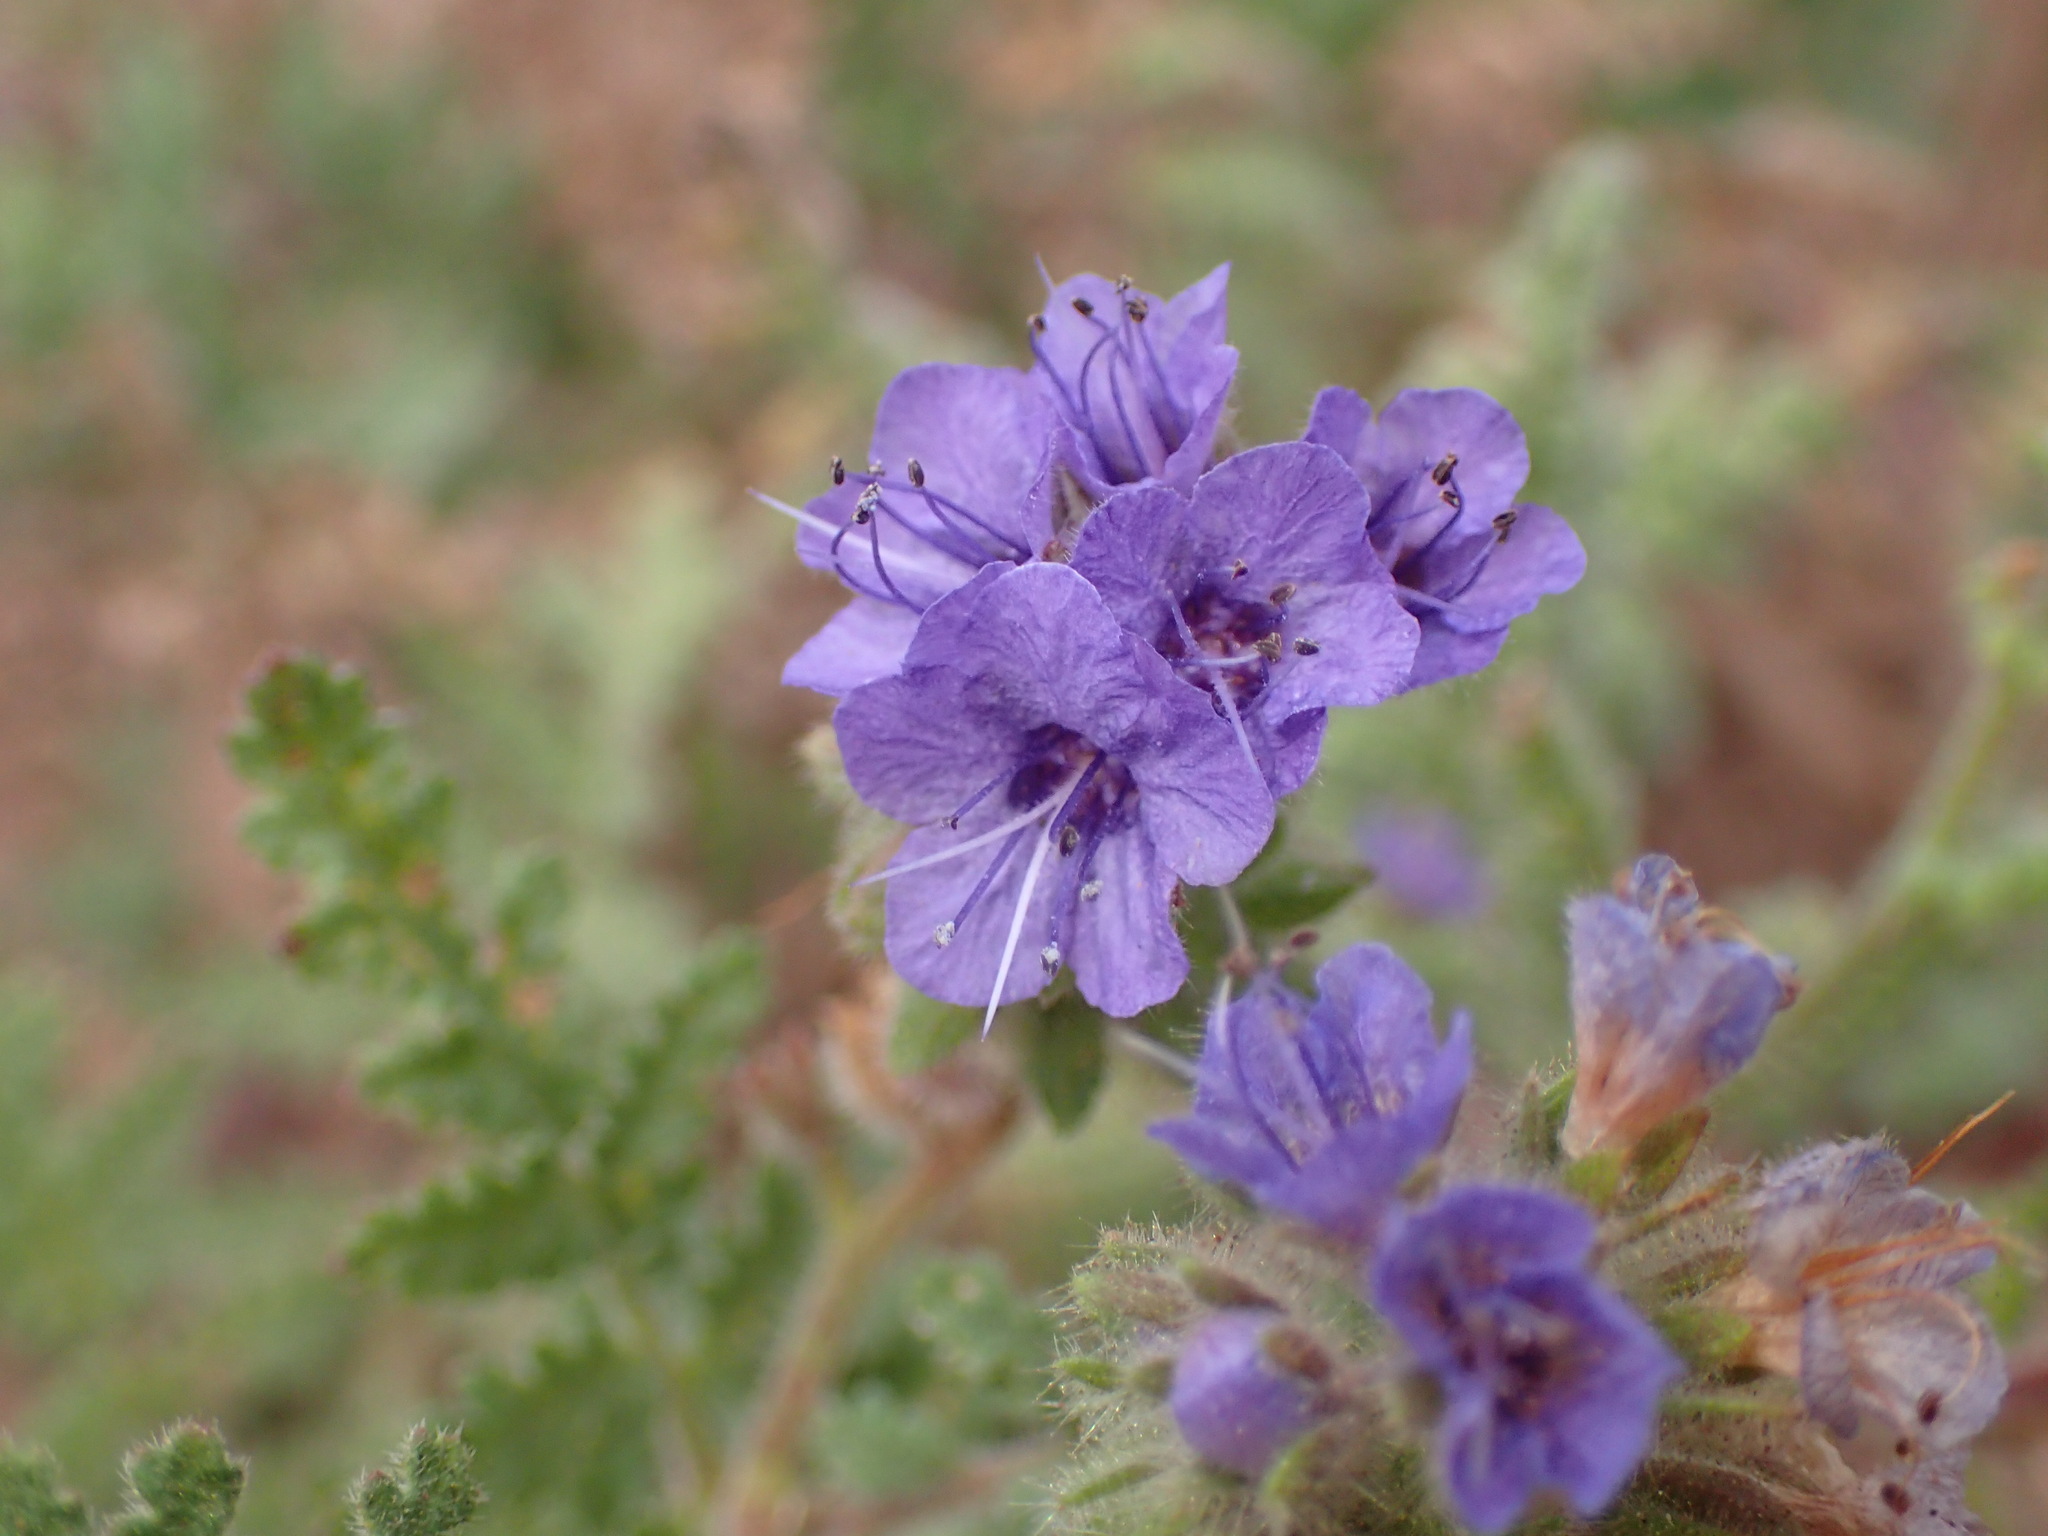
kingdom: Plantae
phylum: Tracheophyta
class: Magnoliopsida
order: Boraginales
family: Hydrophyllaceae
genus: Phacelia
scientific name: Phacelia distans
